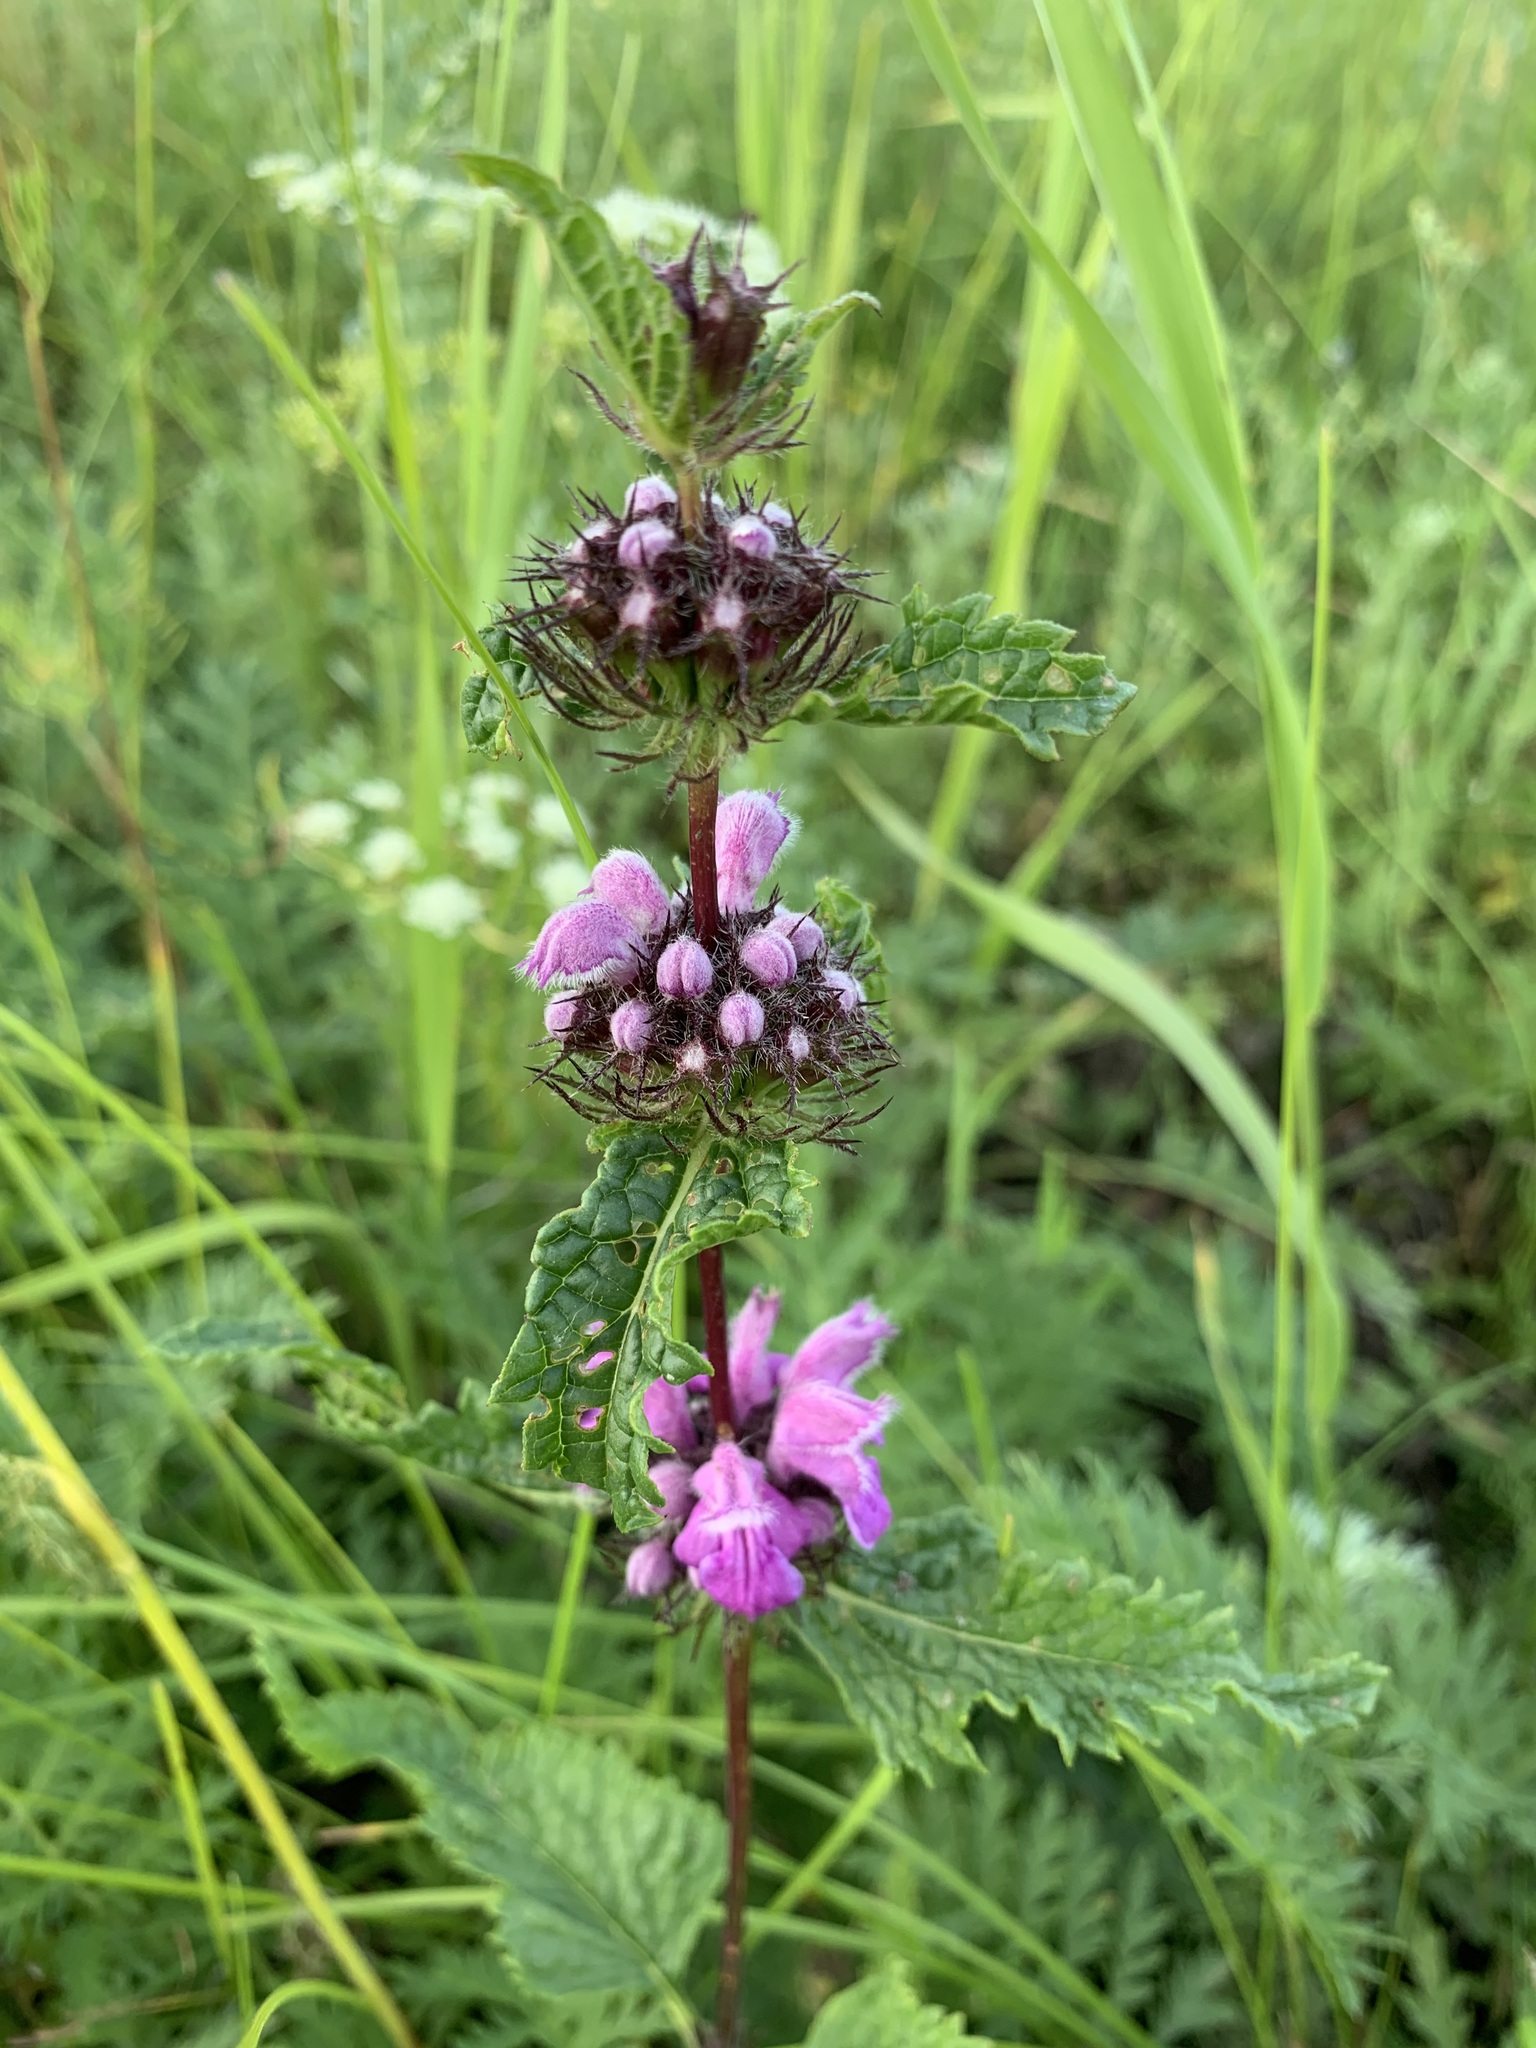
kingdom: Plantae
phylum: Tracheophyta
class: Magnoliopsida
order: Lamiales
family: Lamiaceae
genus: Phlomoides
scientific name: Phlomoides tuberosa
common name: Tuberous jerusalem sage
